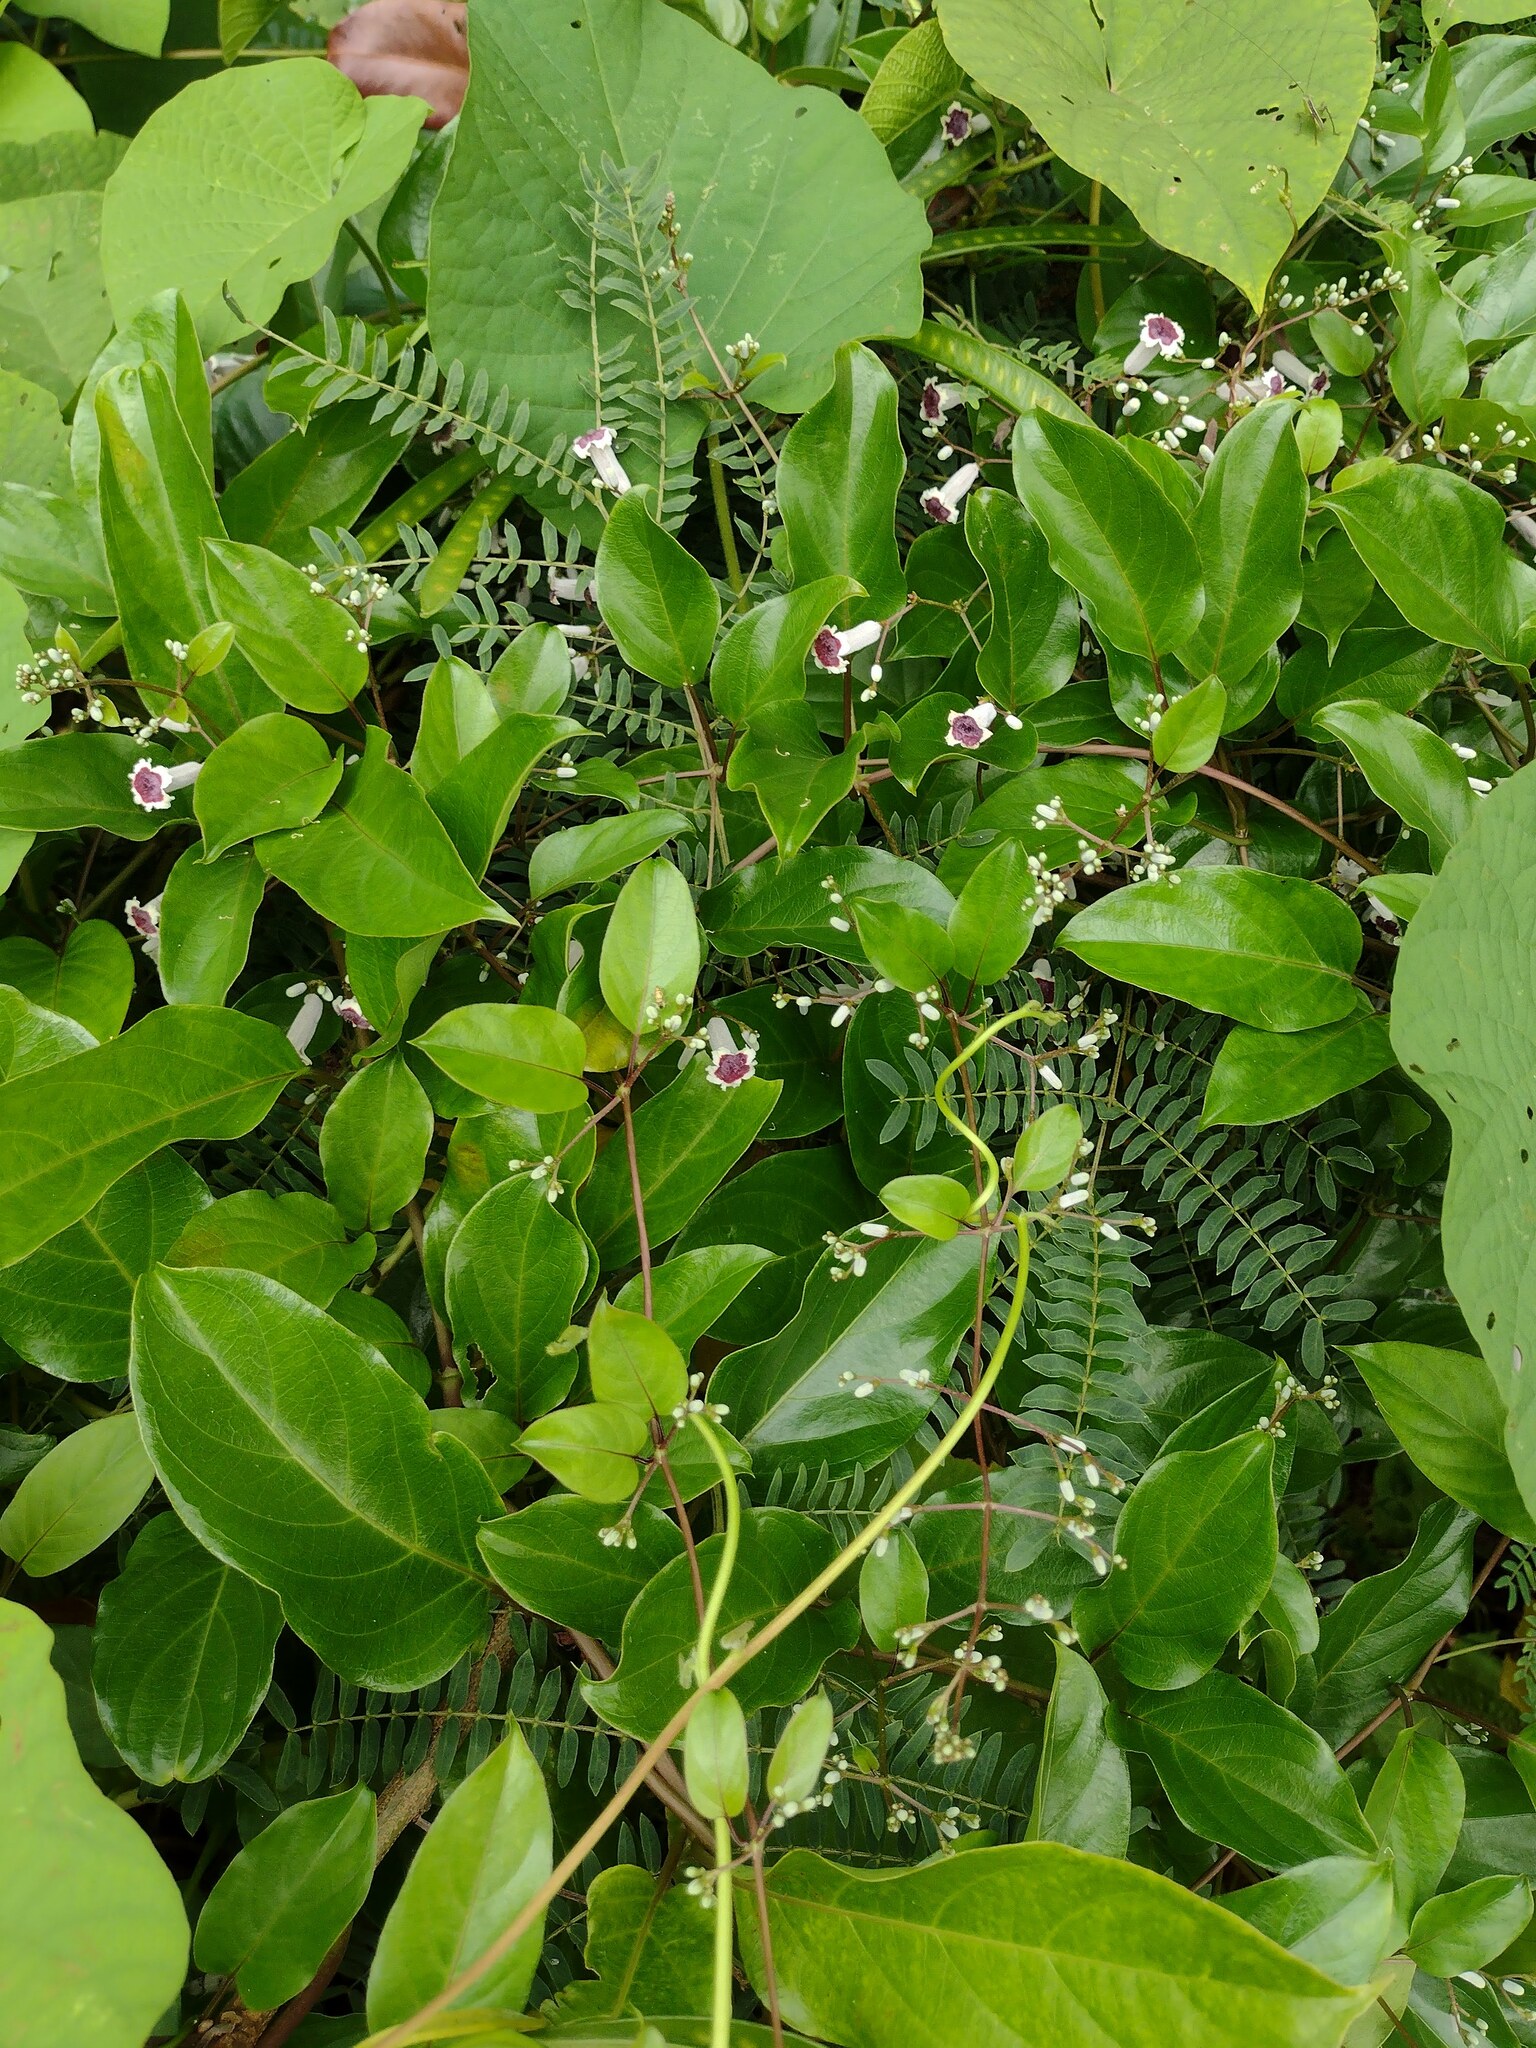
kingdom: Plantae
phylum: Tracheophyta
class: Magnoliopsida
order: Gentianales
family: Rubiaceae
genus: Paederia
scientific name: Paederia foetida
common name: Stinkvine
